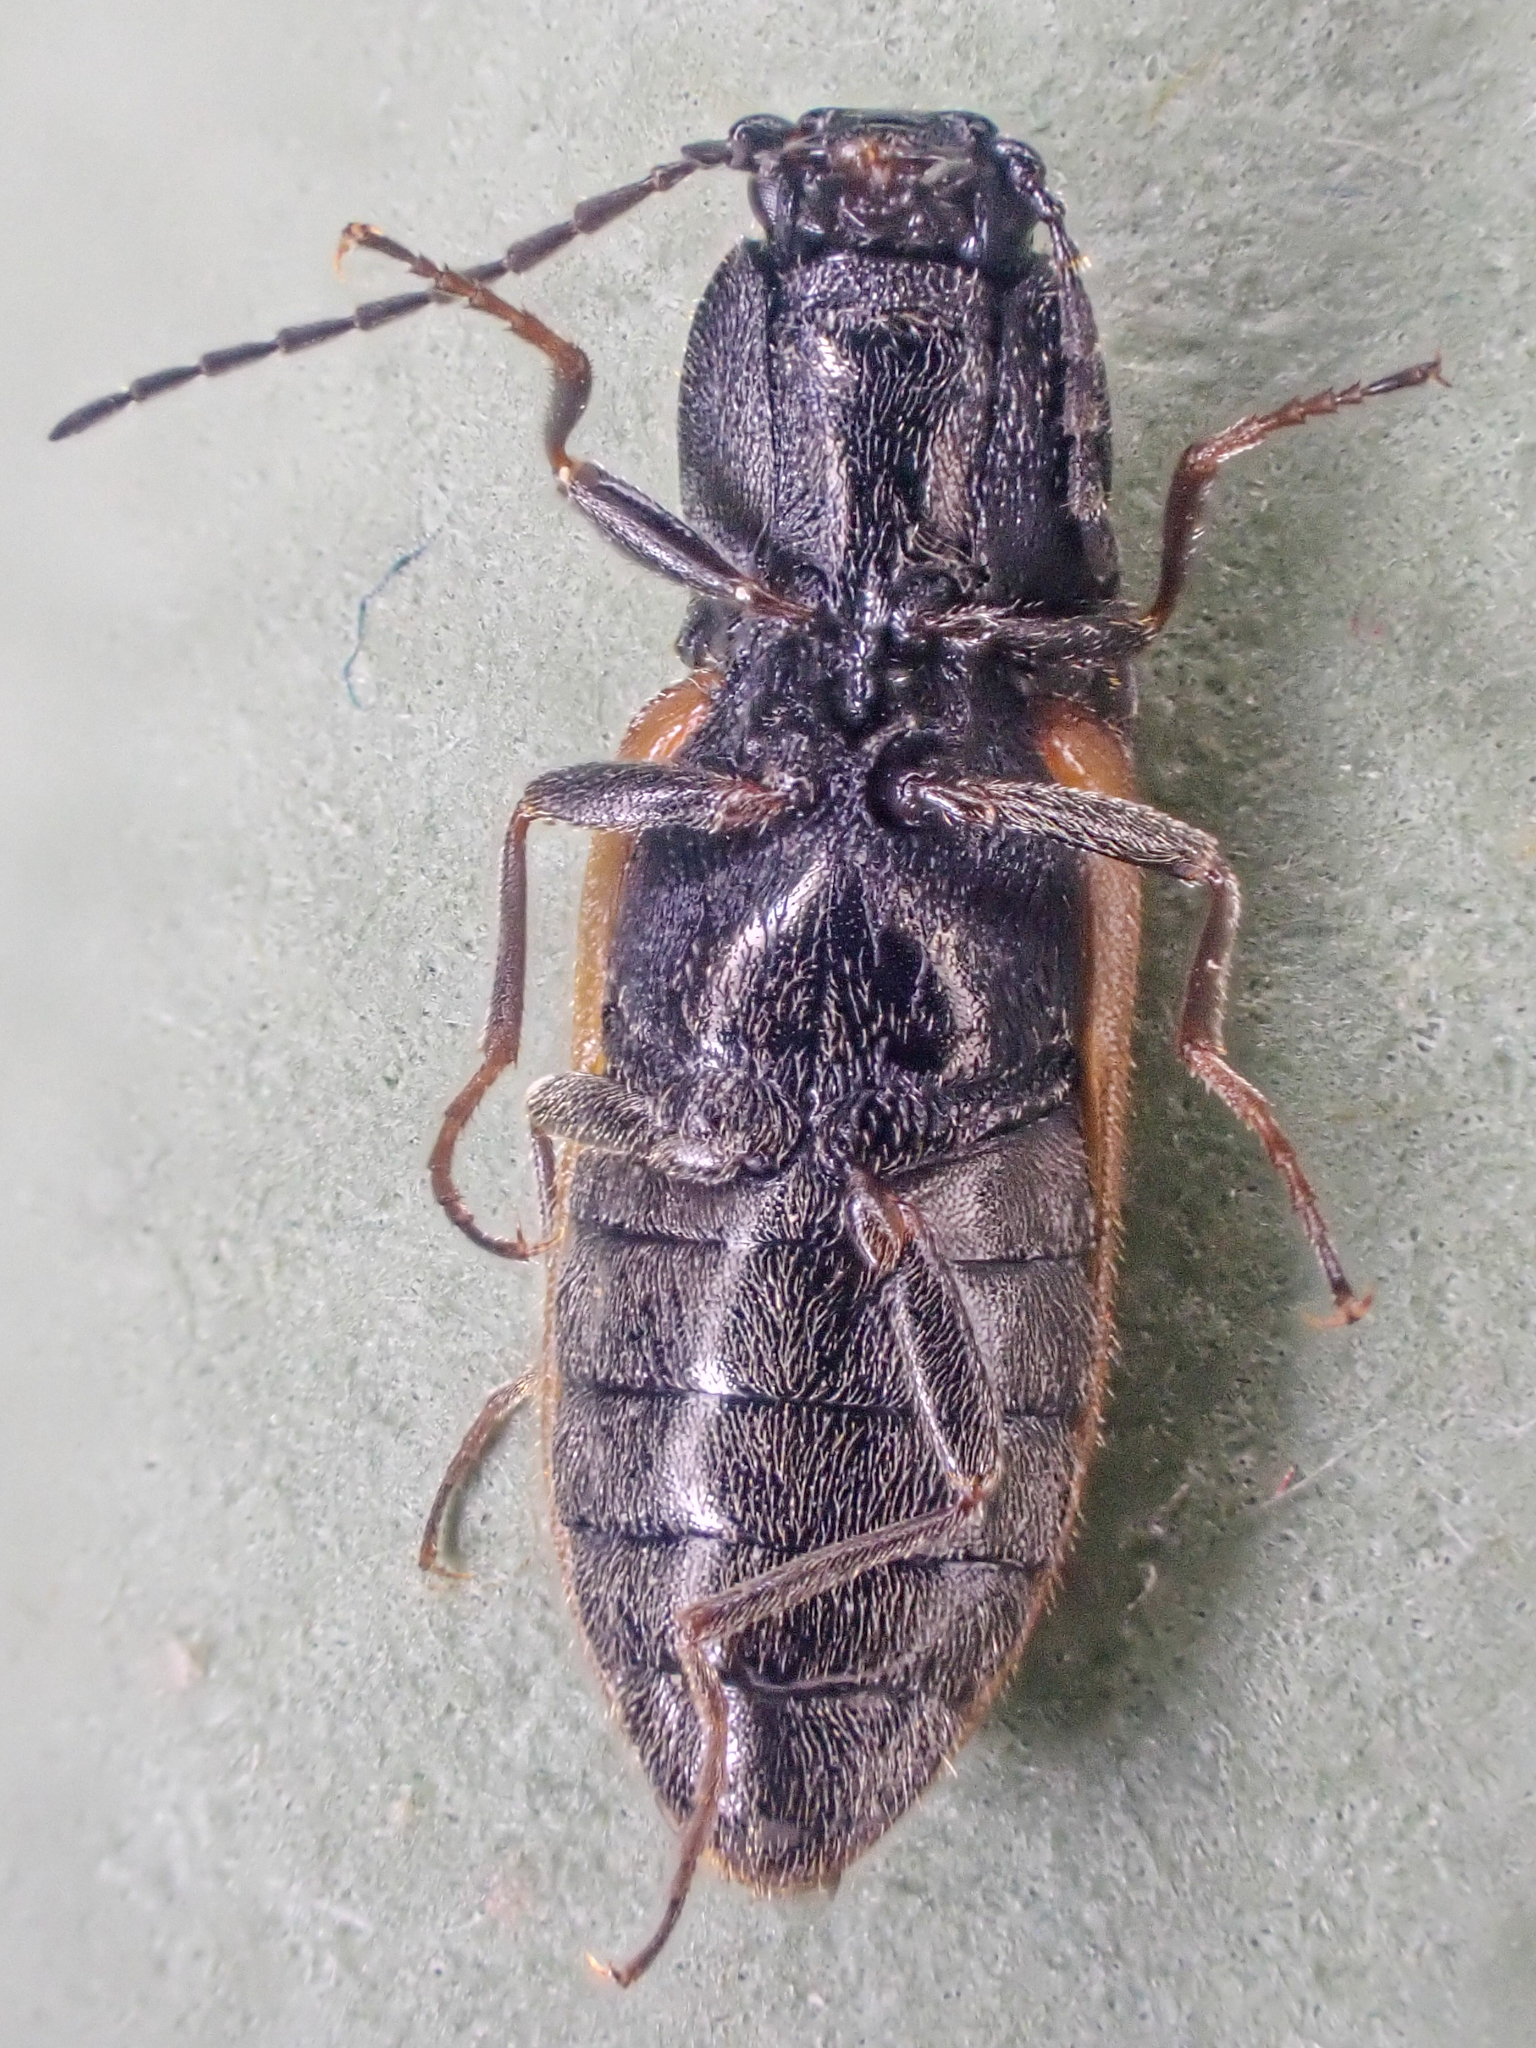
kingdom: Animalia
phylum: Arthropoda
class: Insecta
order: Coleoptera
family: Elateridae
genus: Pseudanostirus
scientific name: Pseudanostirus triundulatus
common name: Three-spotted click beetle
